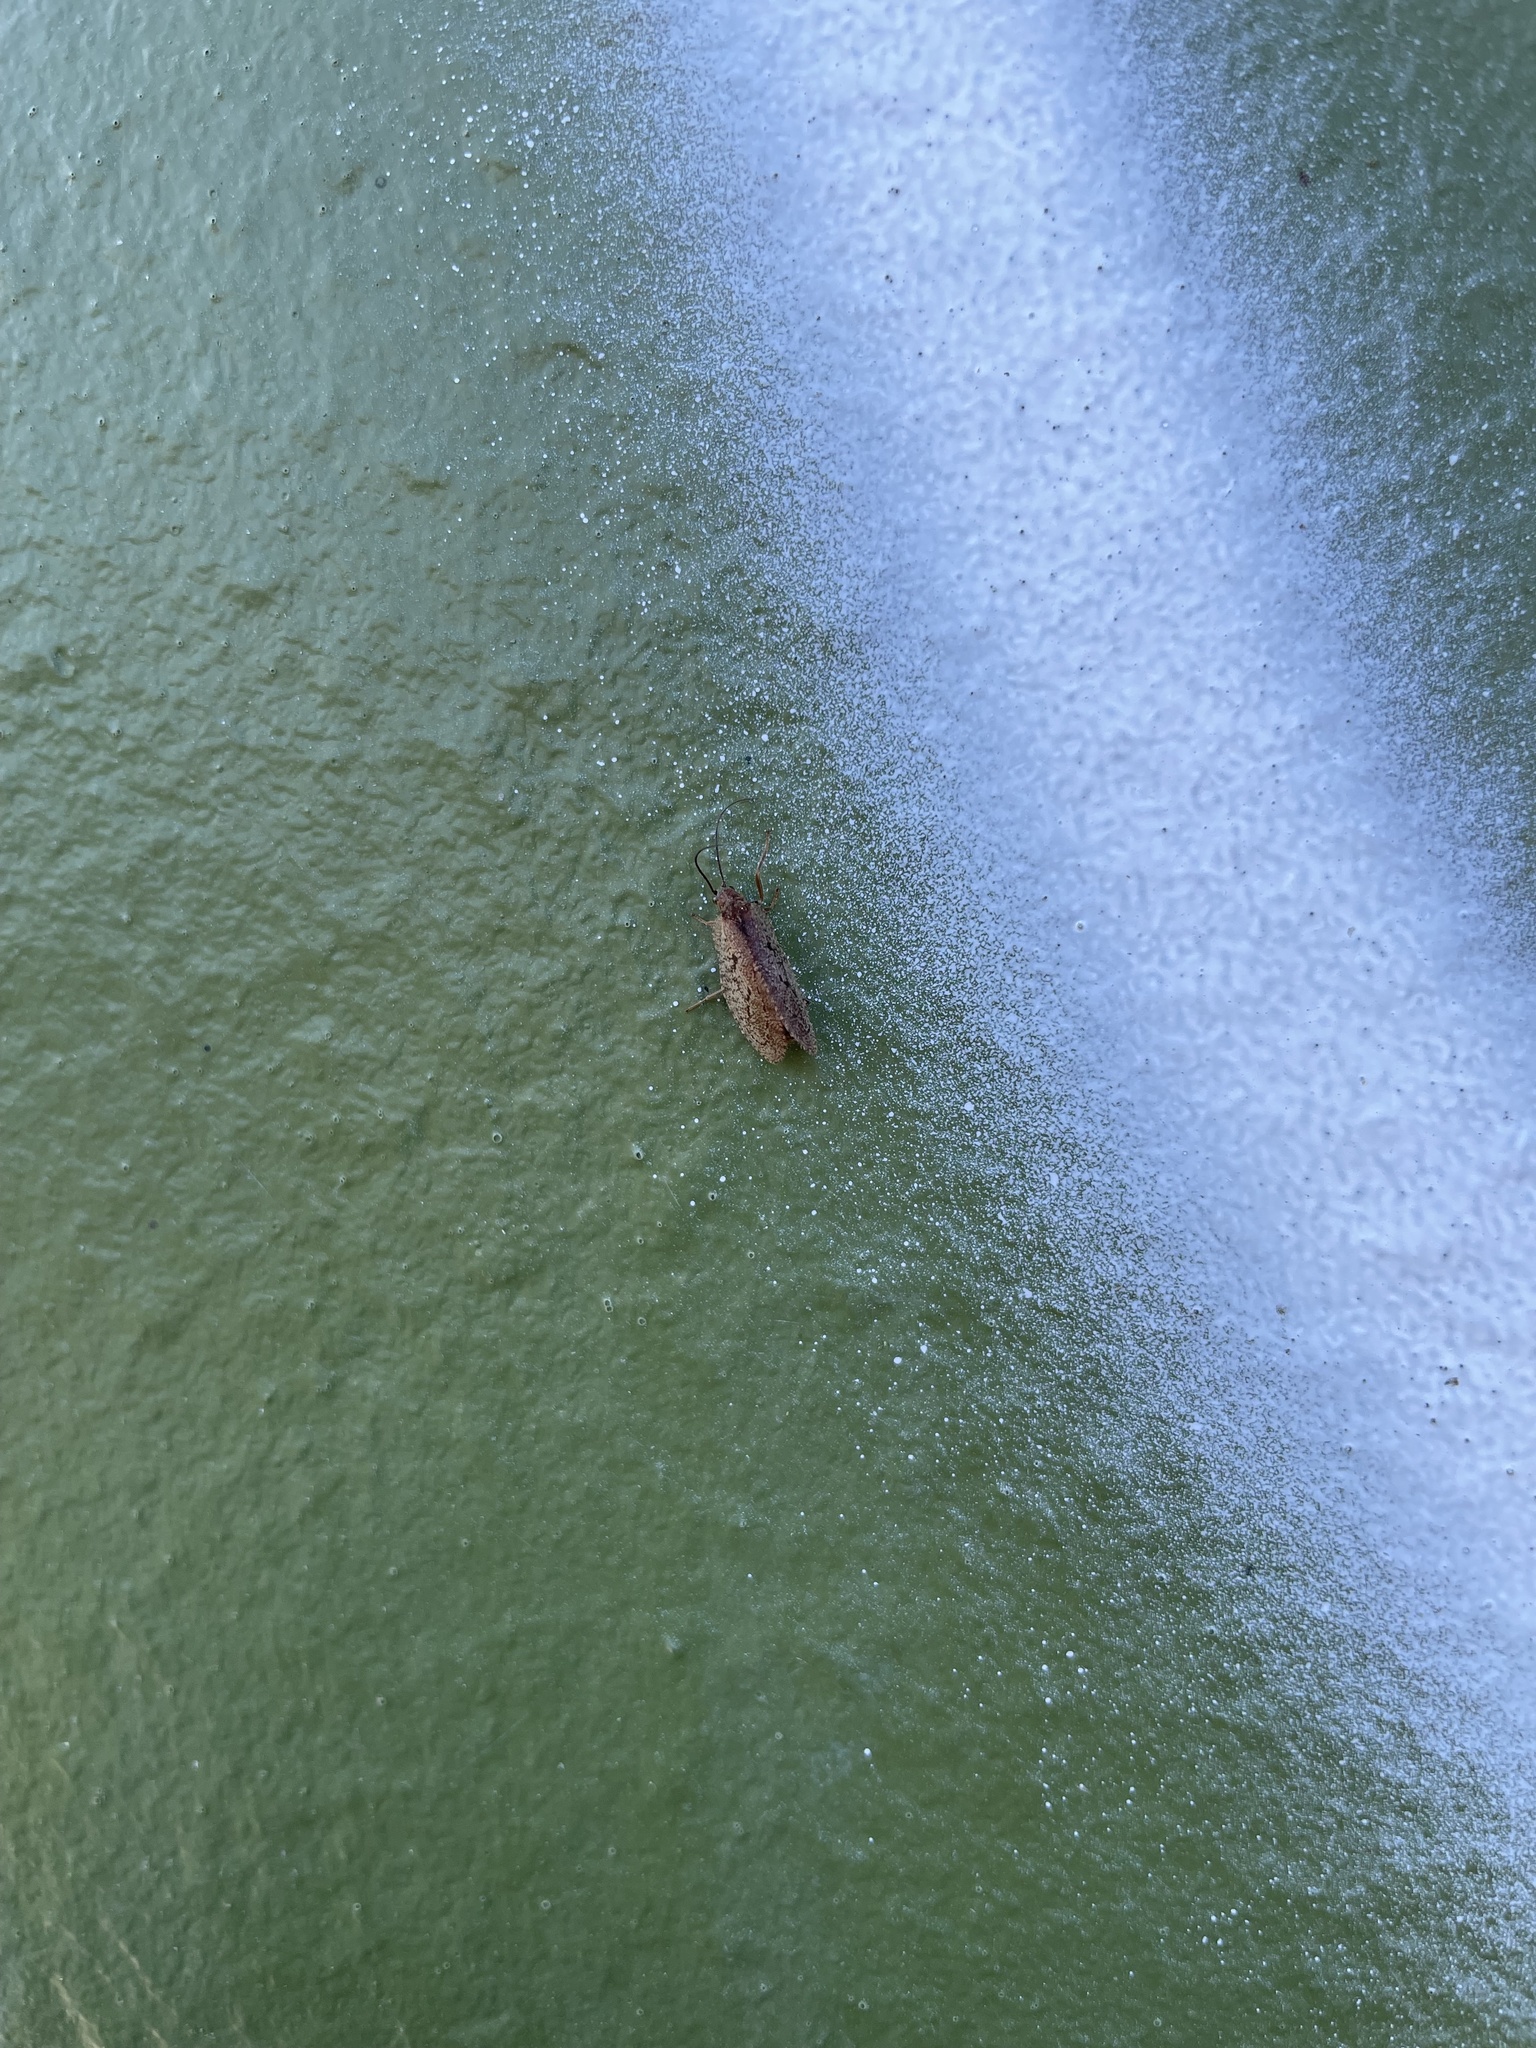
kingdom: Animalia
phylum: Arthropoda
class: Insecta
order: Neuroptera
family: Hemerobiidae
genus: Drepanepteryx
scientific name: Drepanepteryx algida
